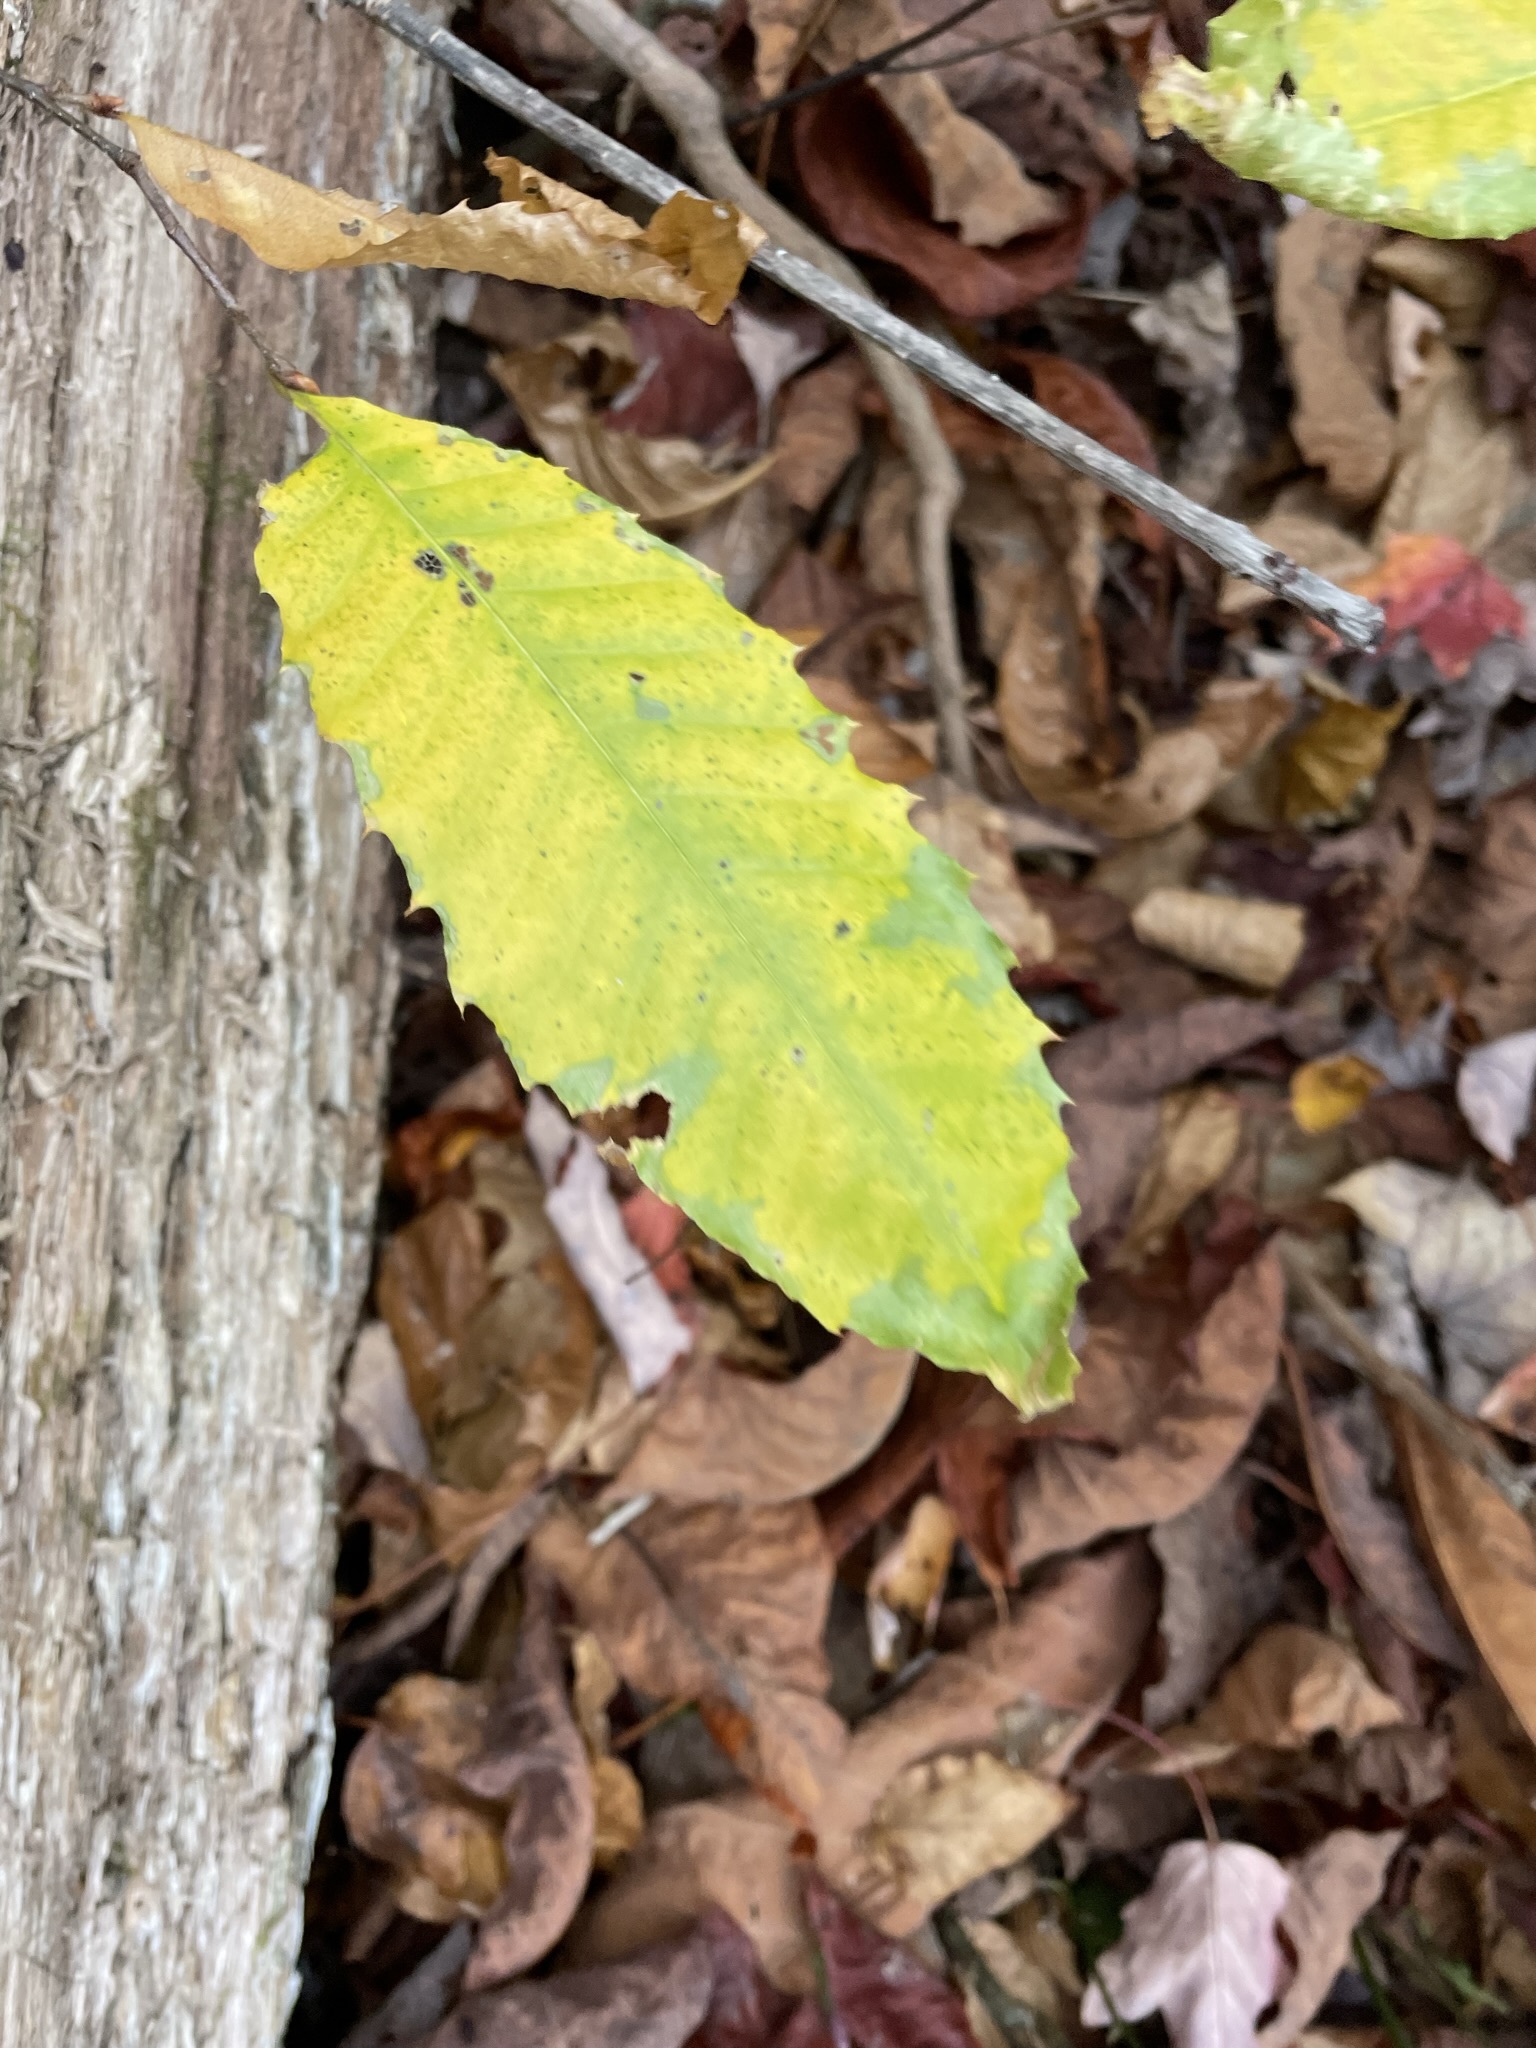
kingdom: Plantae
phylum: Tracheophyta
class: Magnoliopsida
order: Fagales
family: Fagaceae
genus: Castanea
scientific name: Castanea dentata
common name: American chestnut
